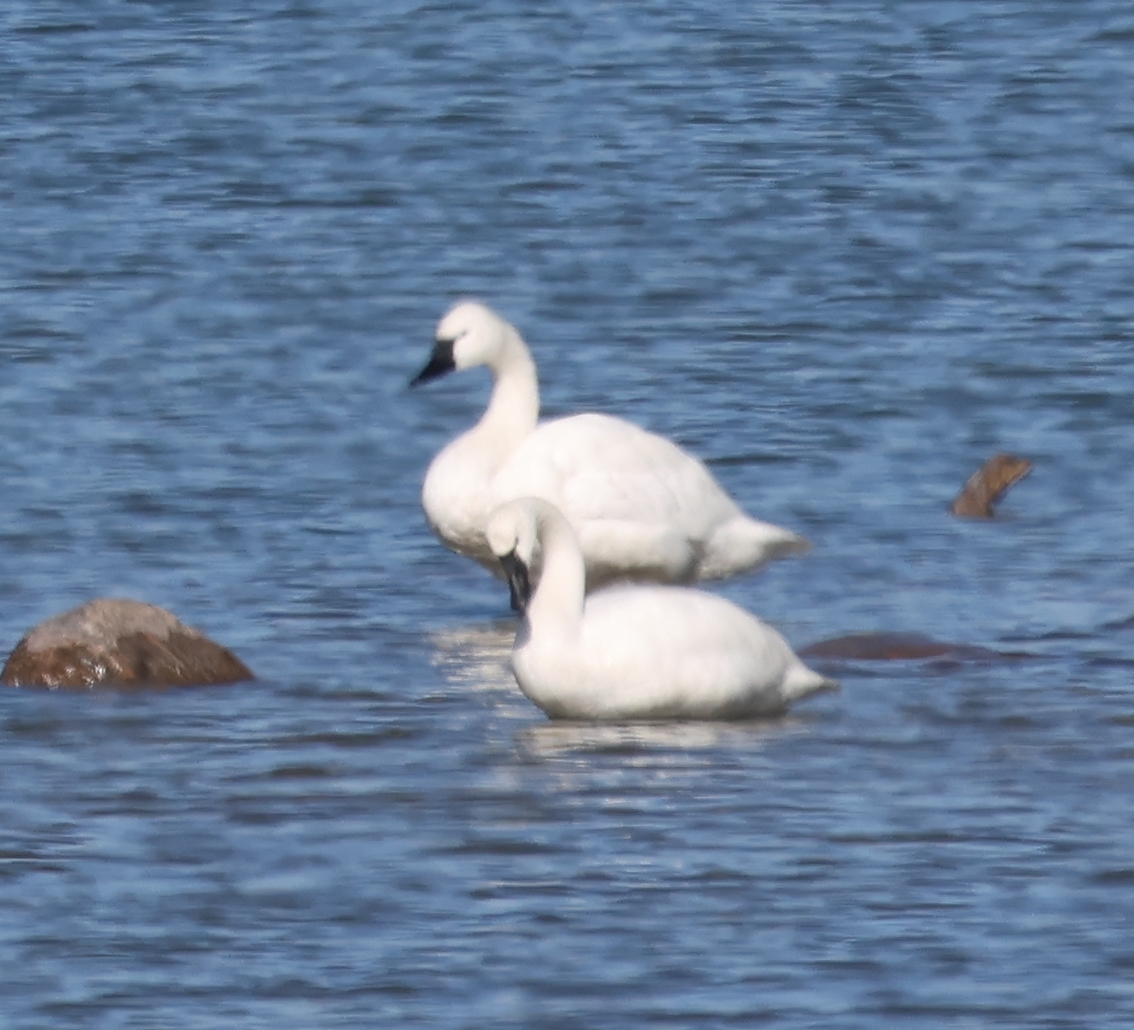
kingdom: Animalia
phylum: Chordata
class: Aves
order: Anseriformes
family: Anatidae
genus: Cygnus
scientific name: Cygnus columbianus
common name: Tundra swan
